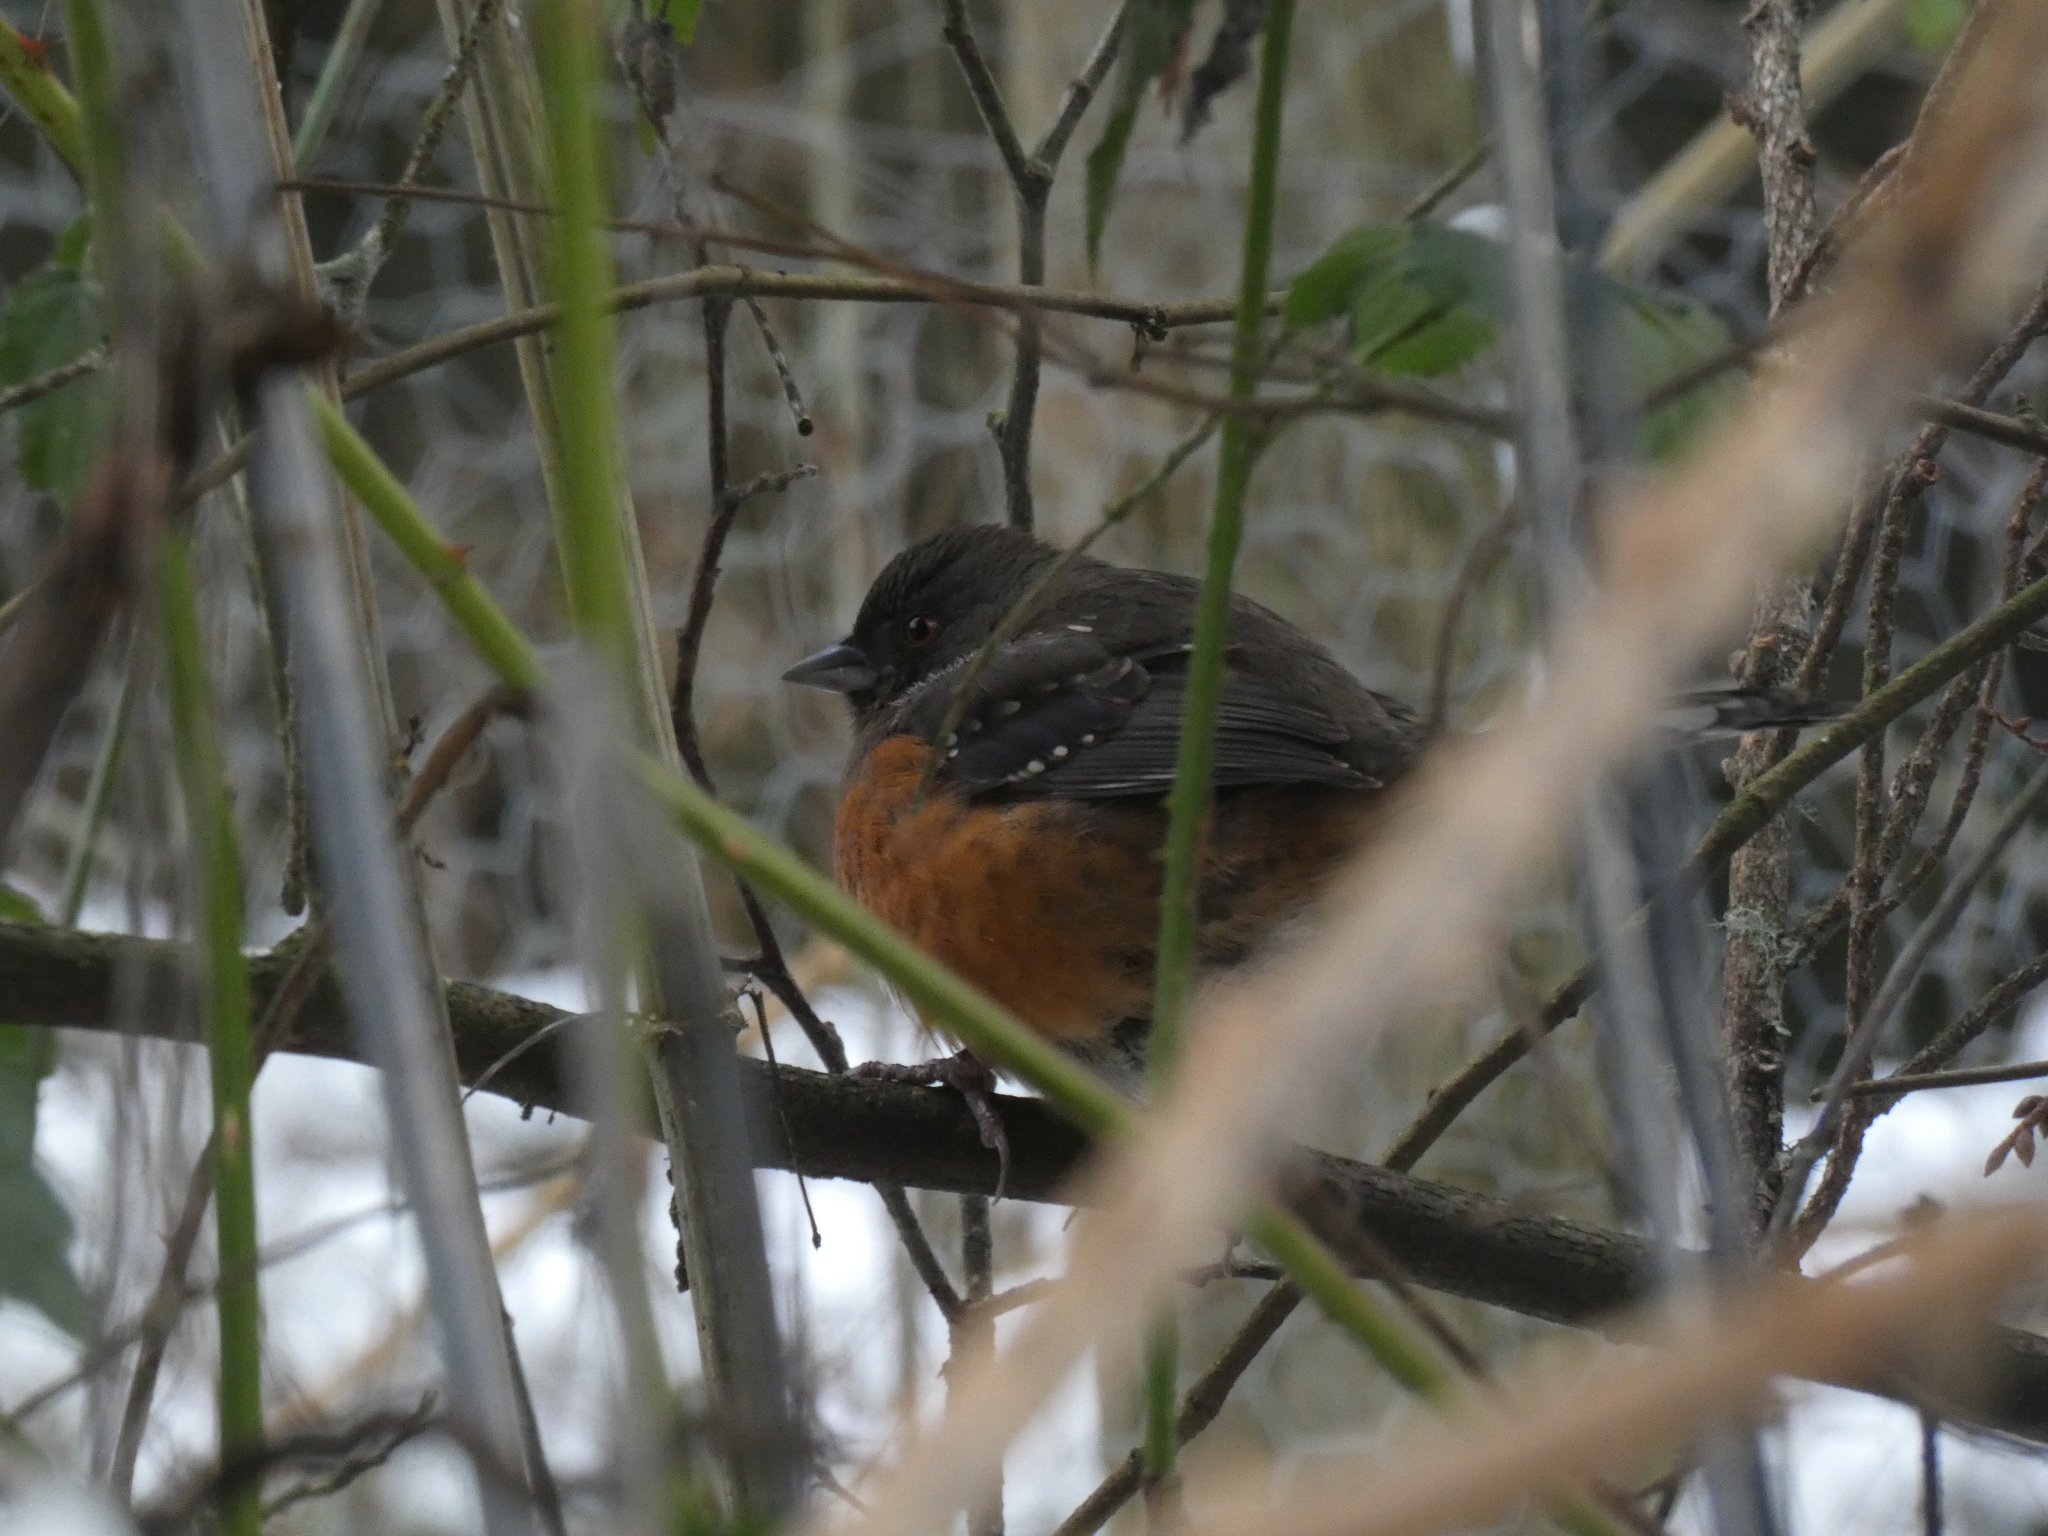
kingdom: Animalia
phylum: Chordata
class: Aves
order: Passeriformes
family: Passerellidae
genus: Pipilo
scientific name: Pipilo maculatus
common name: Spotted towhee
